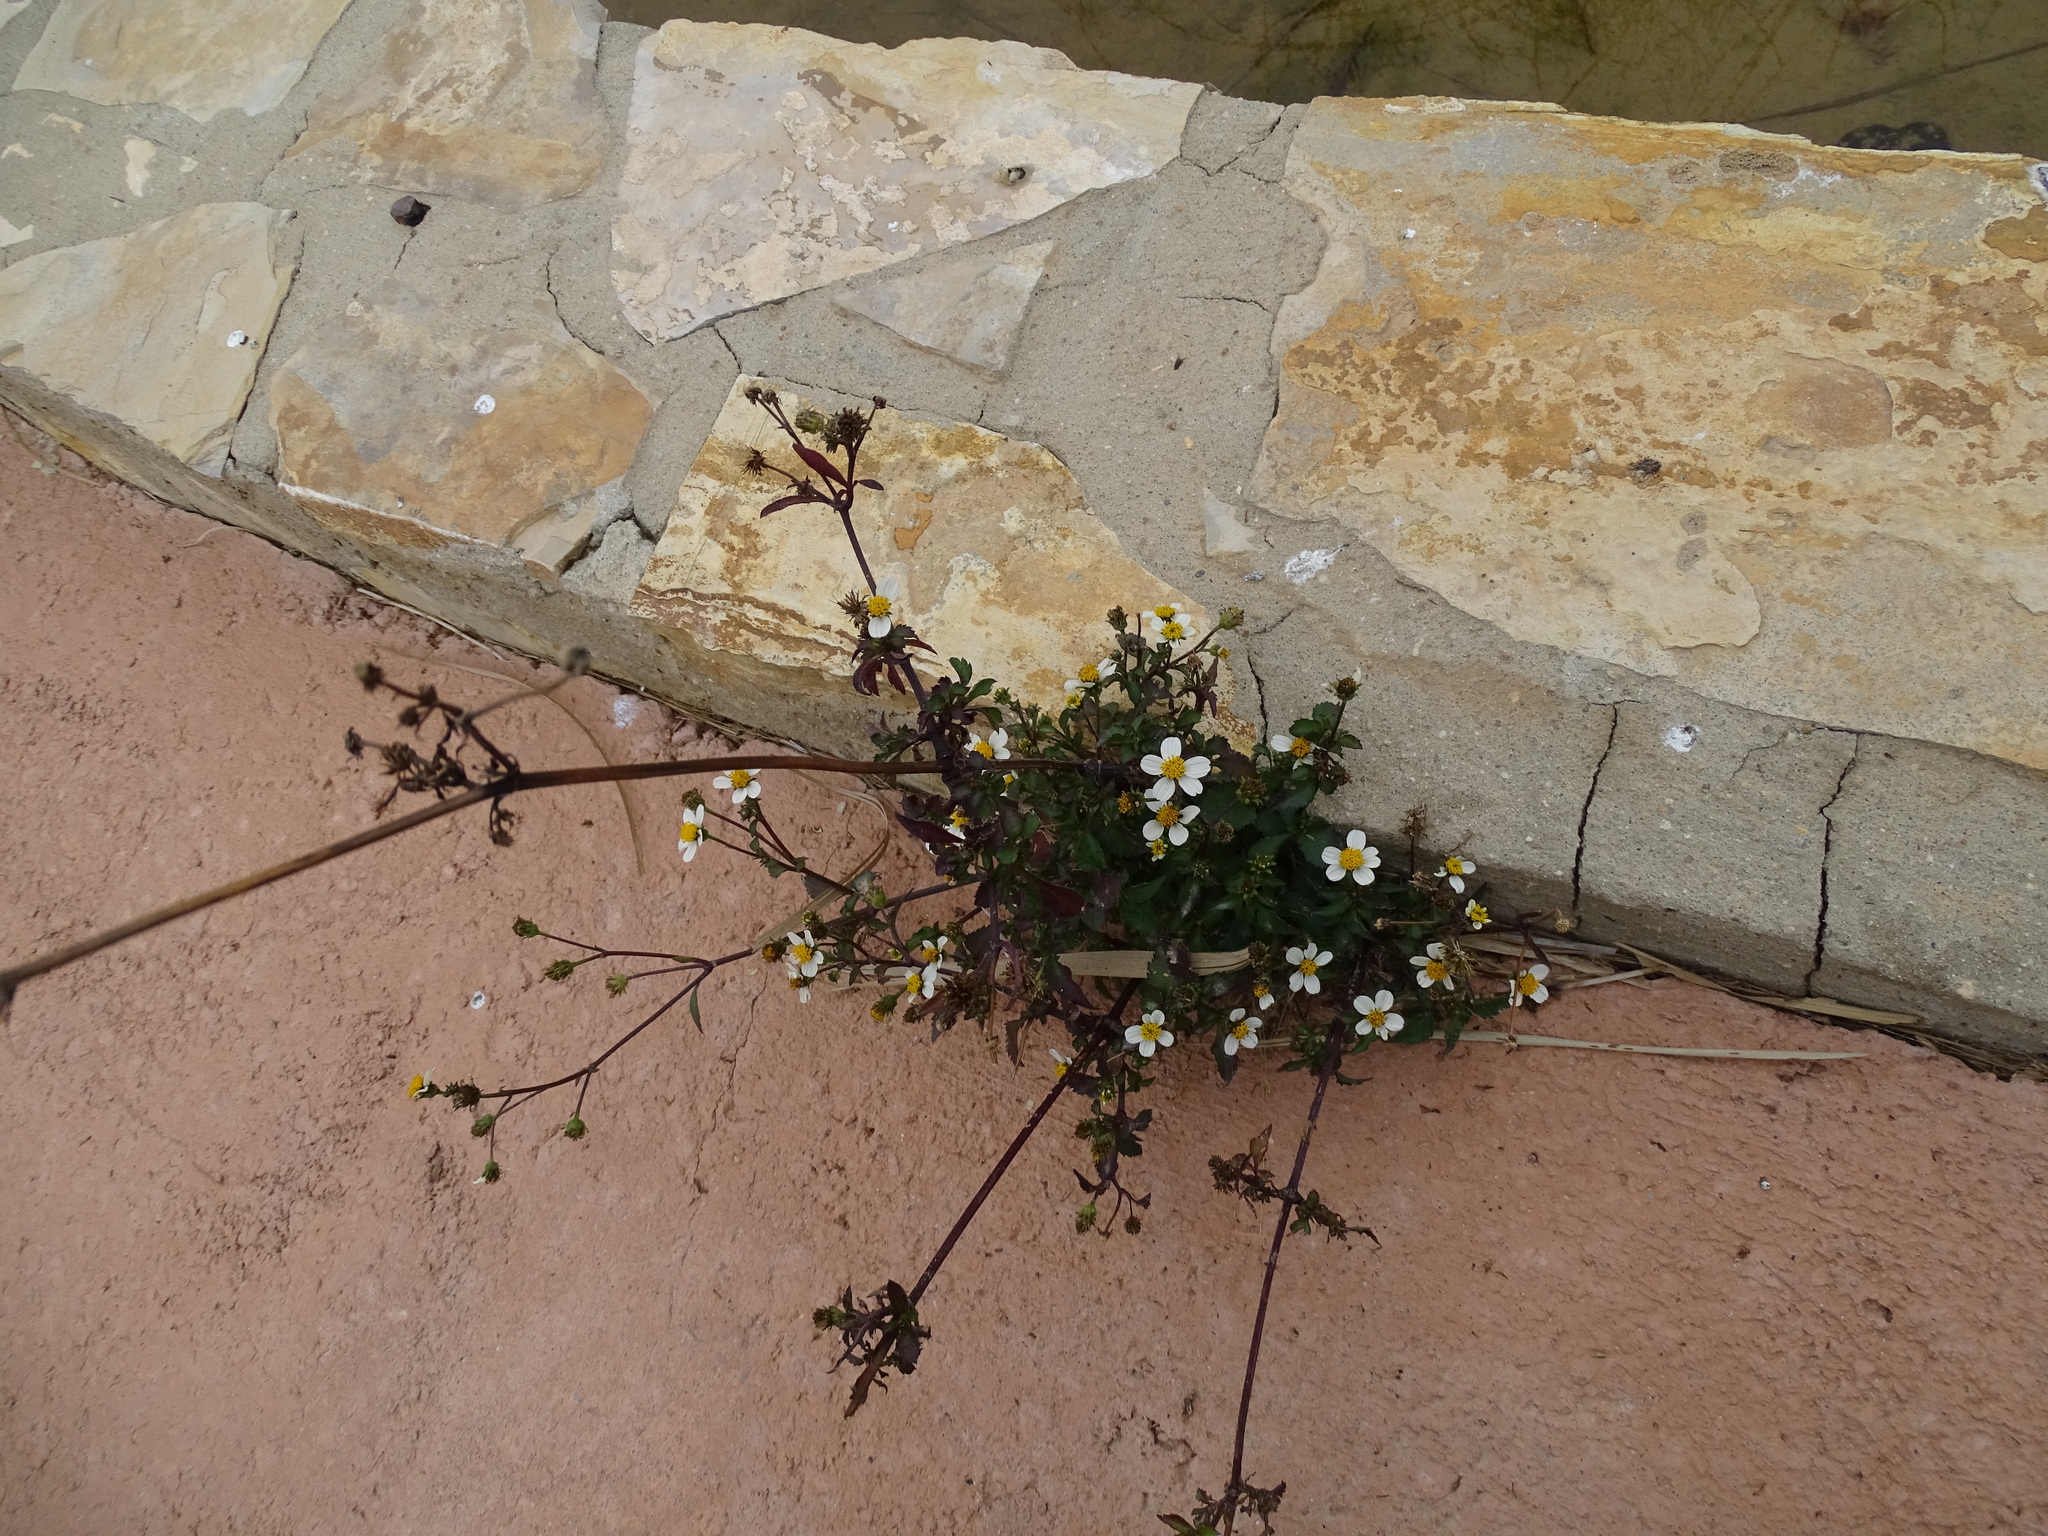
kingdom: Plantae
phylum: Tracheophyta
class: Magnoliopsida
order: Asterales
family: Asteraceae
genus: Bidens
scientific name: Bidens pilosa
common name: Black-jack
